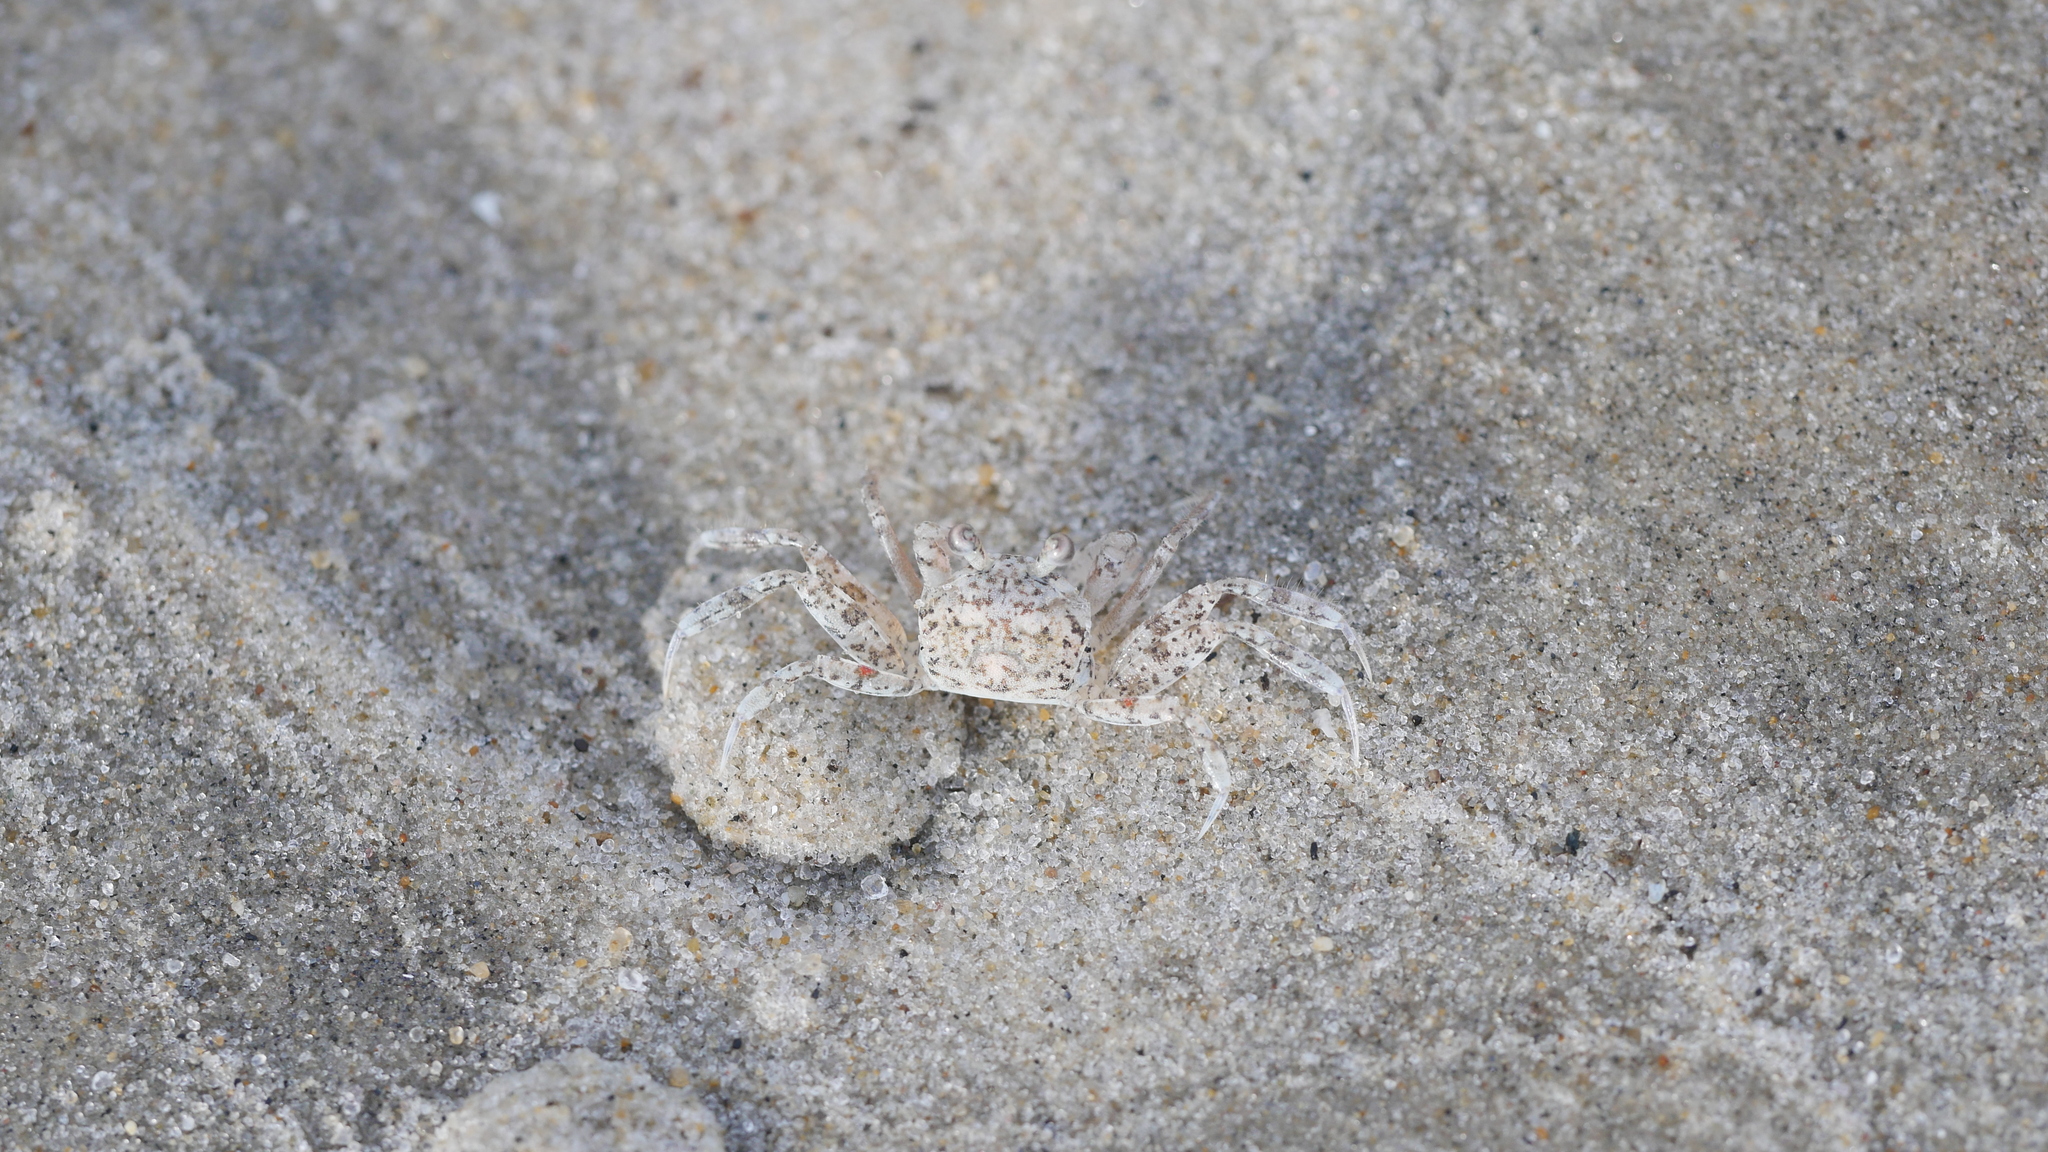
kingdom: Animalia
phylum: Arthropoda
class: Malacostraca
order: Decapoda
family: Ocypodidae
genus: Ocypode
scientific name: Ocypode quadrata
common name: Ghost crab
